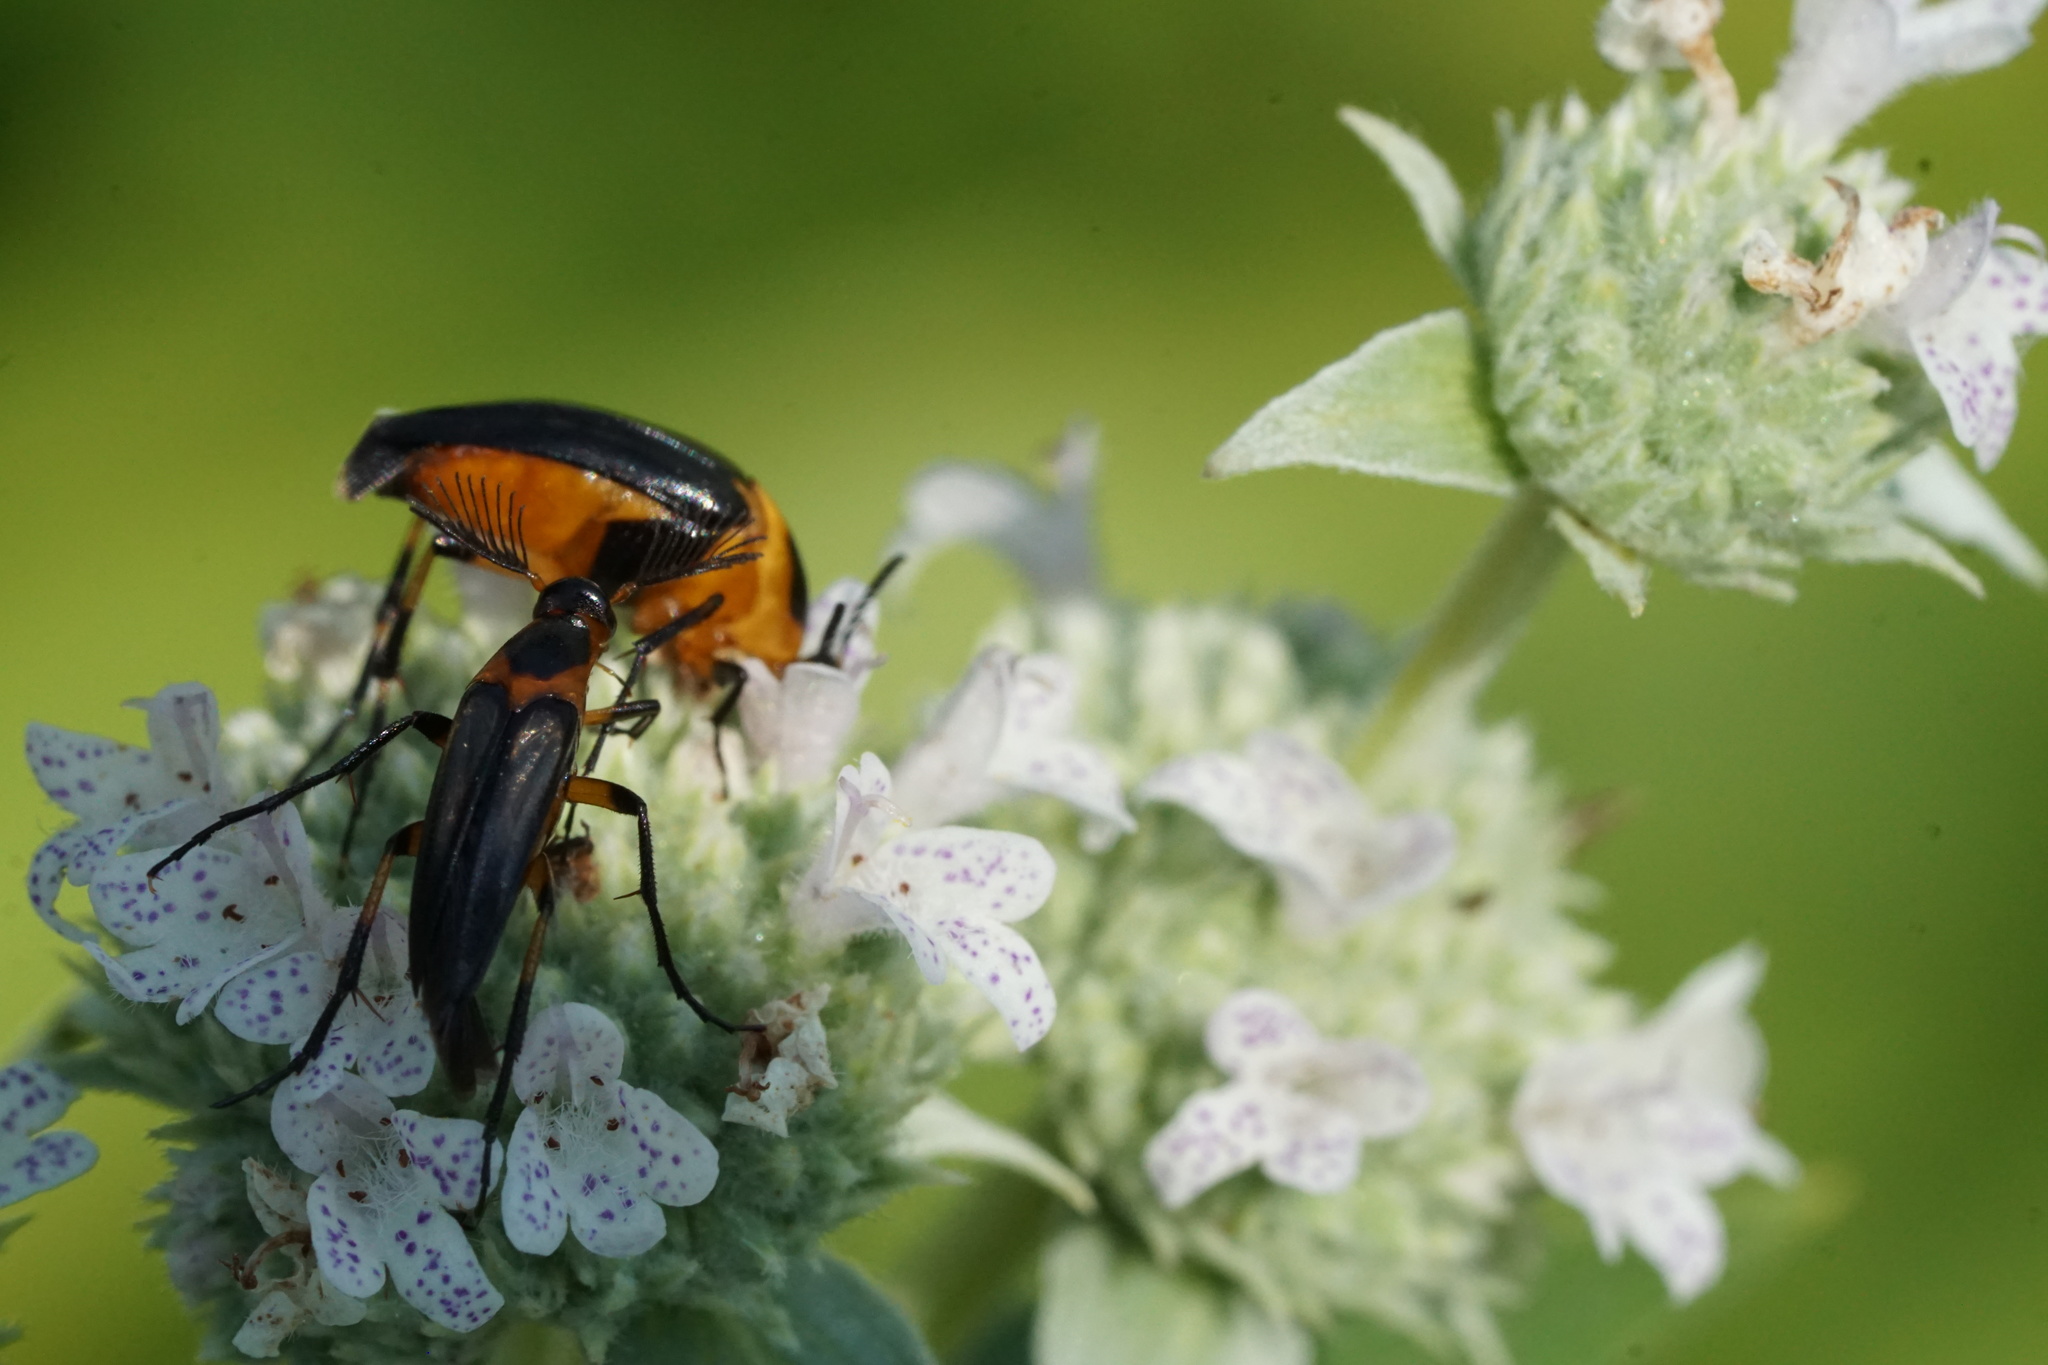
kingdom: Animalia
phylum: Arthropoda
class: Insecta
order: Coleoptera
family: Ripiphoridae
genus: Macrosiagon
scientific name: Macrosiagon limbatum
